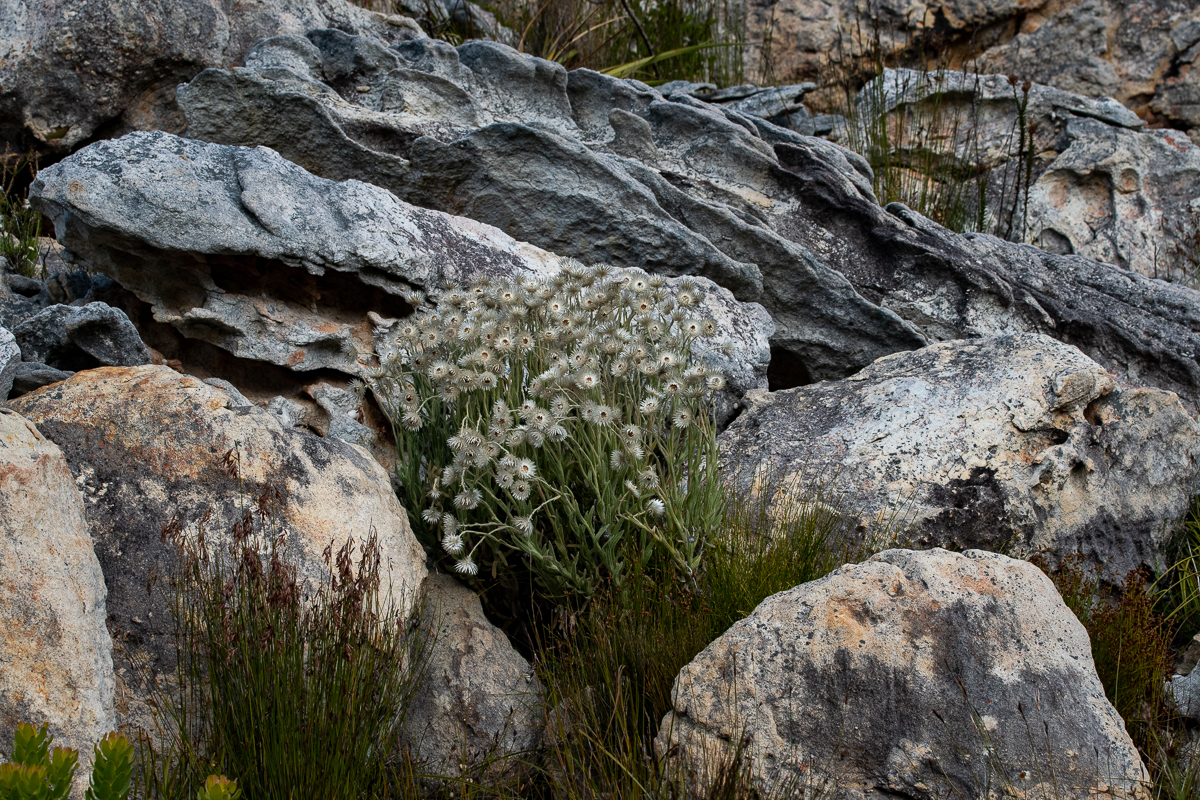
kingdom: Plantae
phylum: Tracheophyta
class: Magnoliopsida
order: Asterales
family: Asteraceae
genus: Syncarpha
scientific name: Syncarpha vestita
